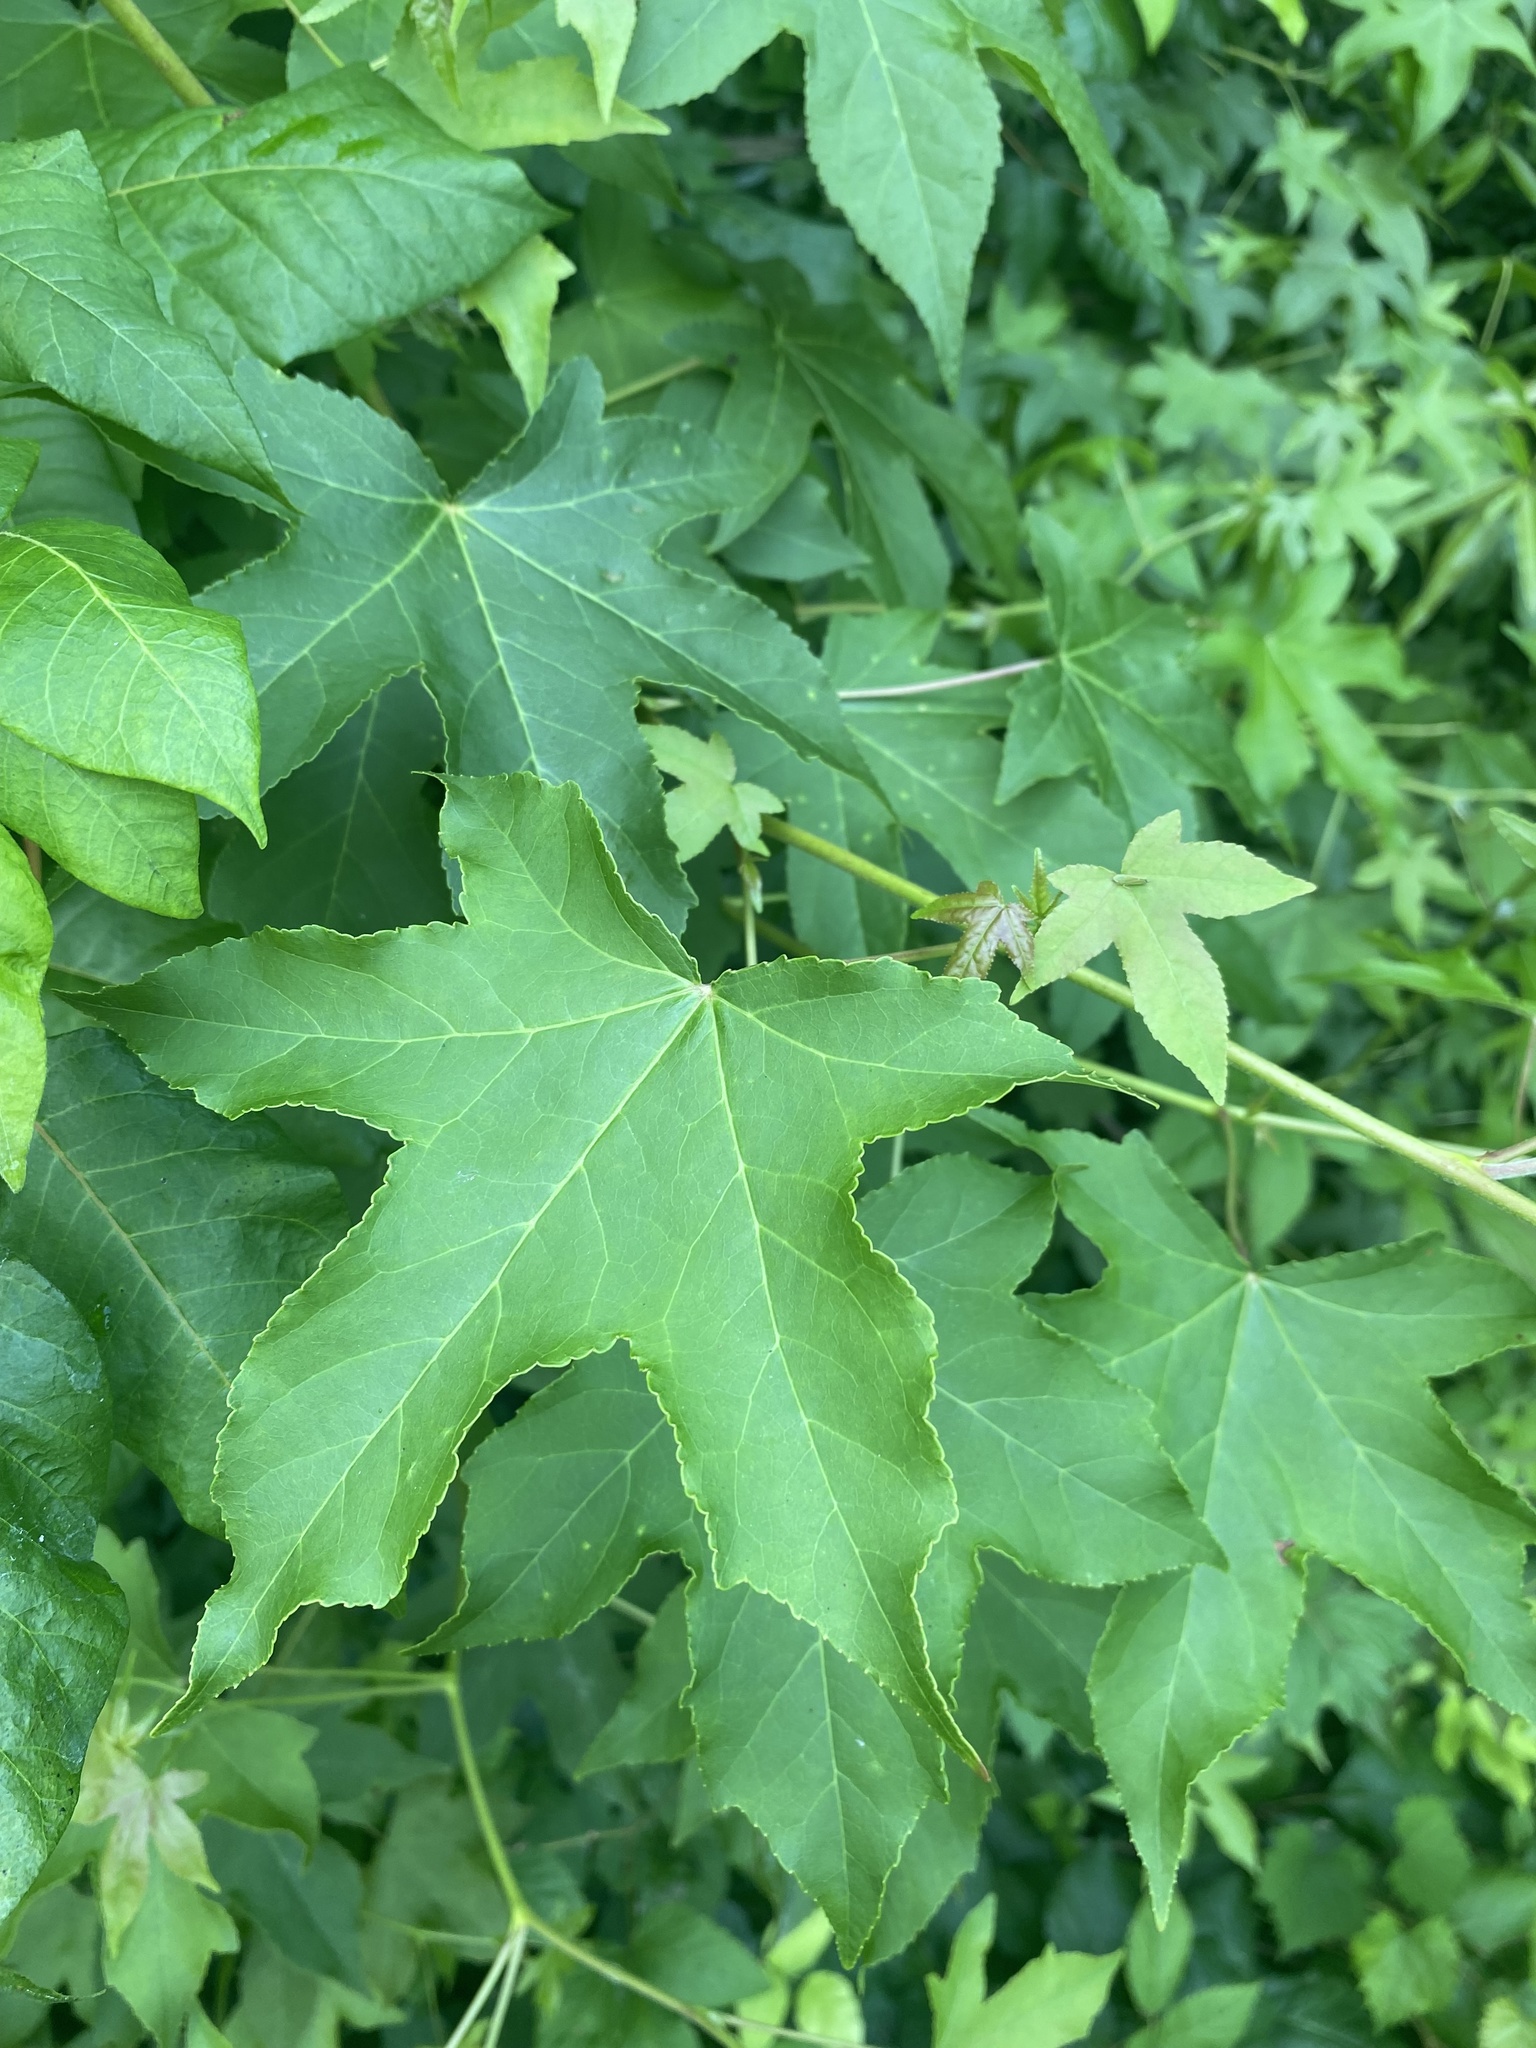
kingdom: Plantae
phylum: Tracheophyta
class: Magnoliopsida
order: Saxifragales
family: Altingiaceae
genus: Liquidambar
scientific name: Liquidambar styraciflua
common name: Sweet gum
